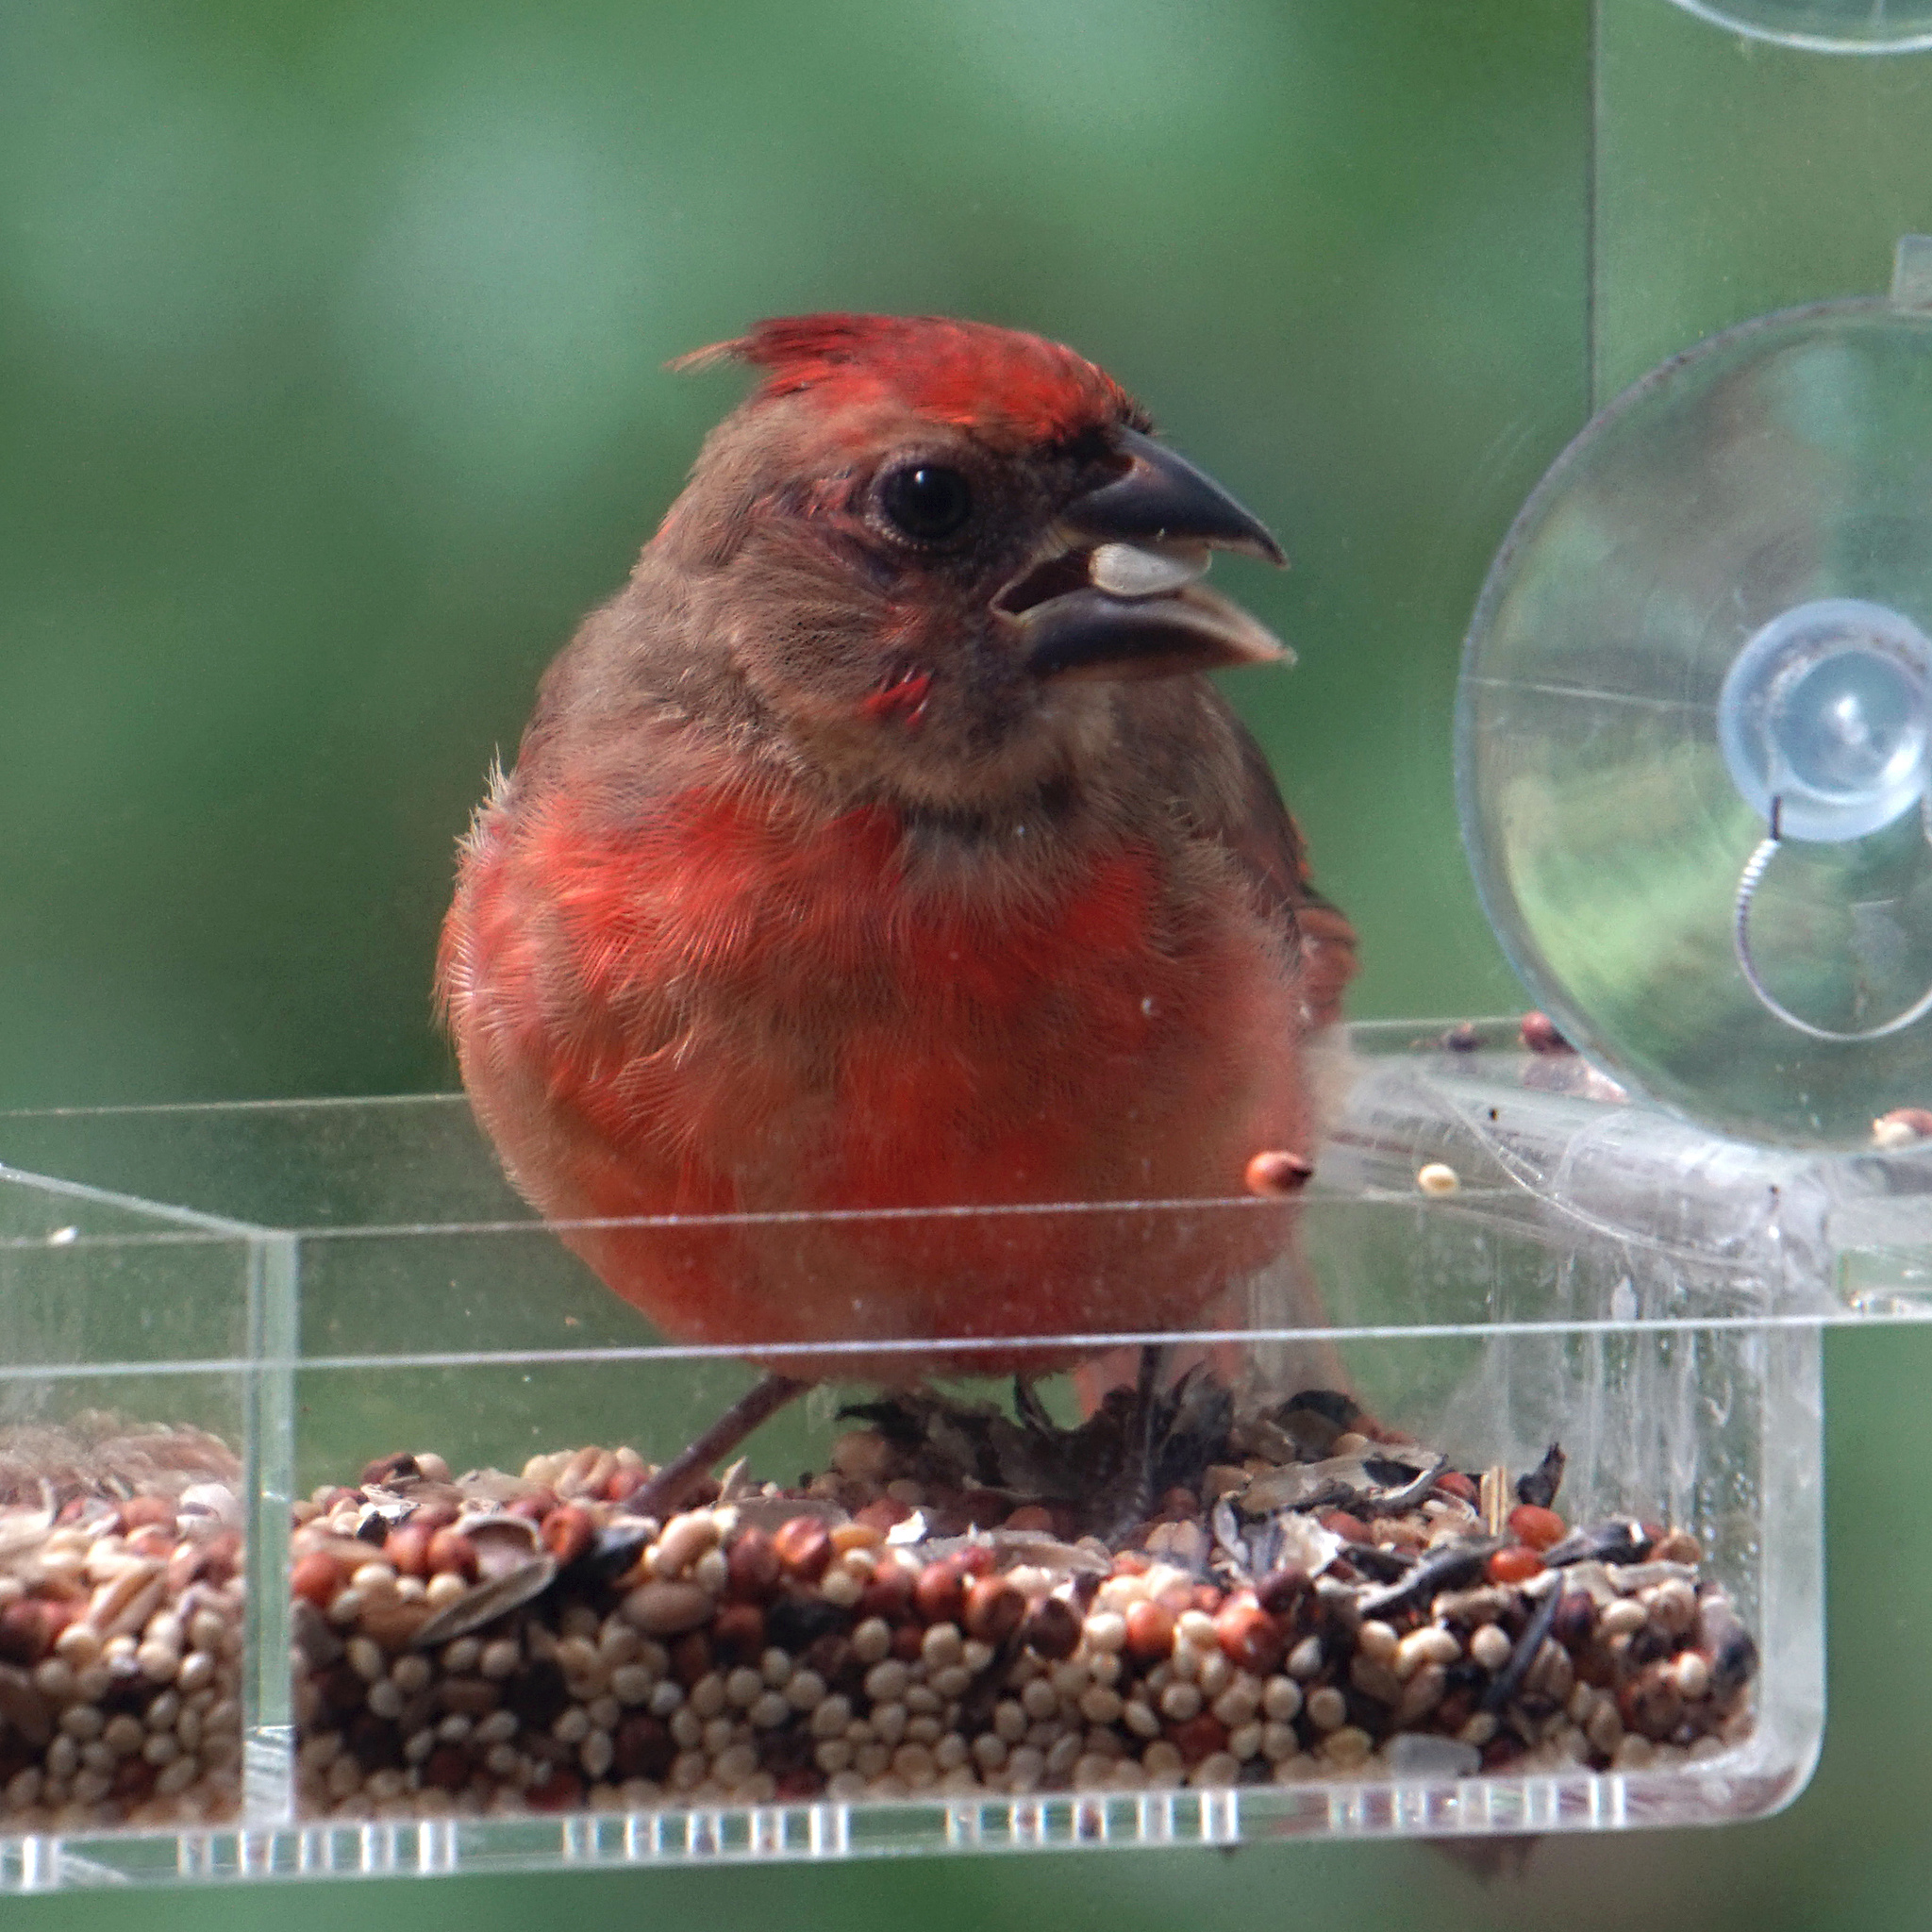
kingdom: Animalia
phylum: Chordata
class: Aves
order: Passeriformes
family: Cardinalidae
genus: Cardinalis
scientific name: Cardinalis cardinalis
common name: Northern cardinal
